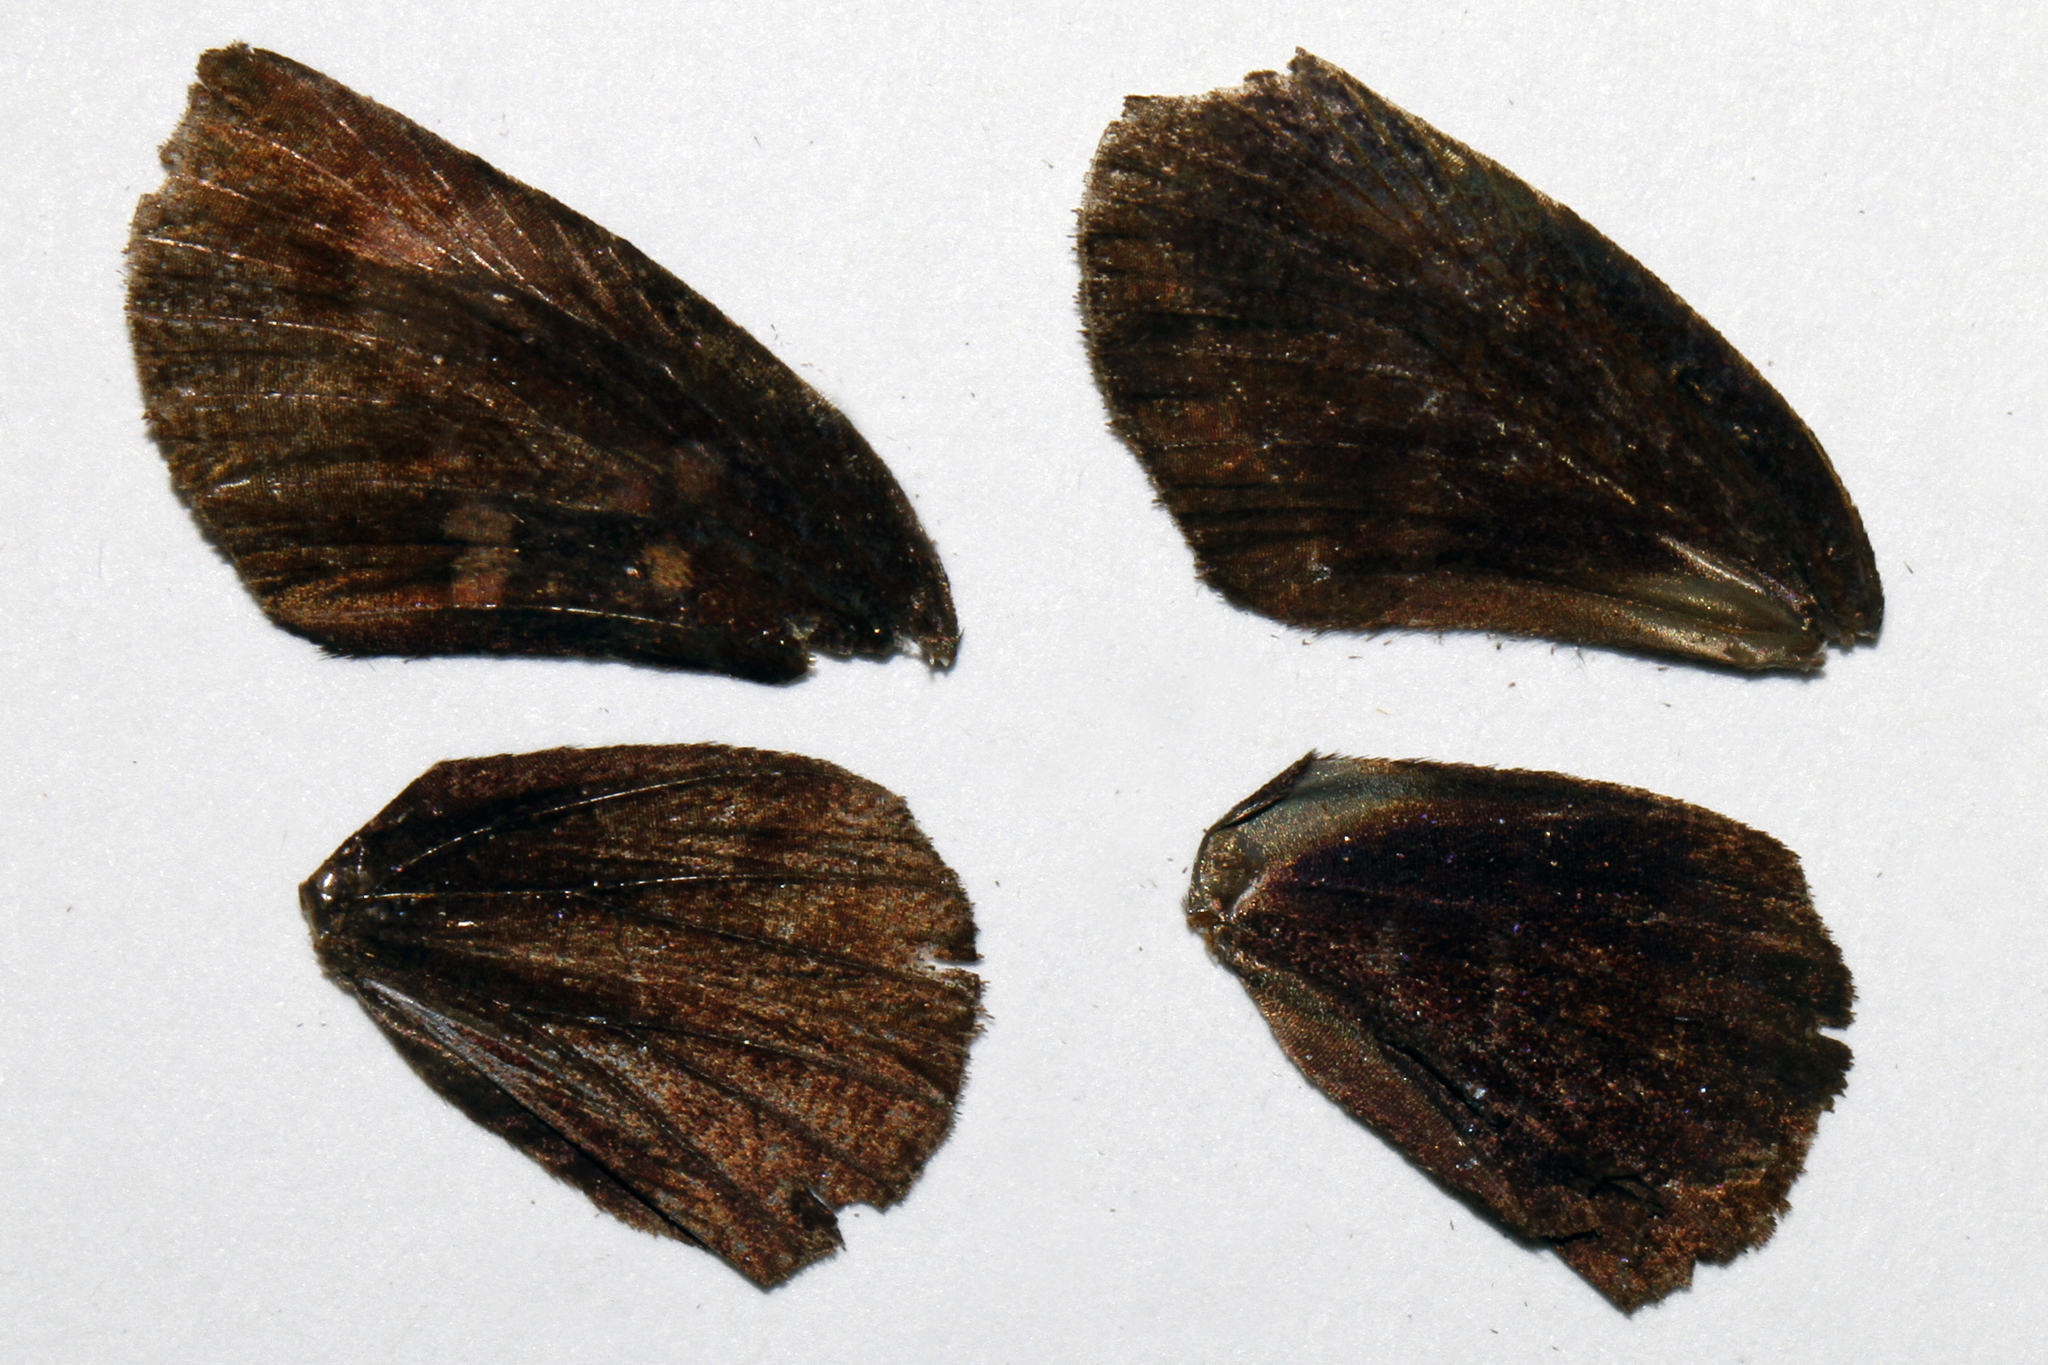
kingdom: Animalia
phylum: Arthropoda
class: Insecta
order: Lepidoptera
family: Hesperiidae
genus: Achlyodes
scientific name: Achlyodes thraso
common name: Sickle-winged skipper
